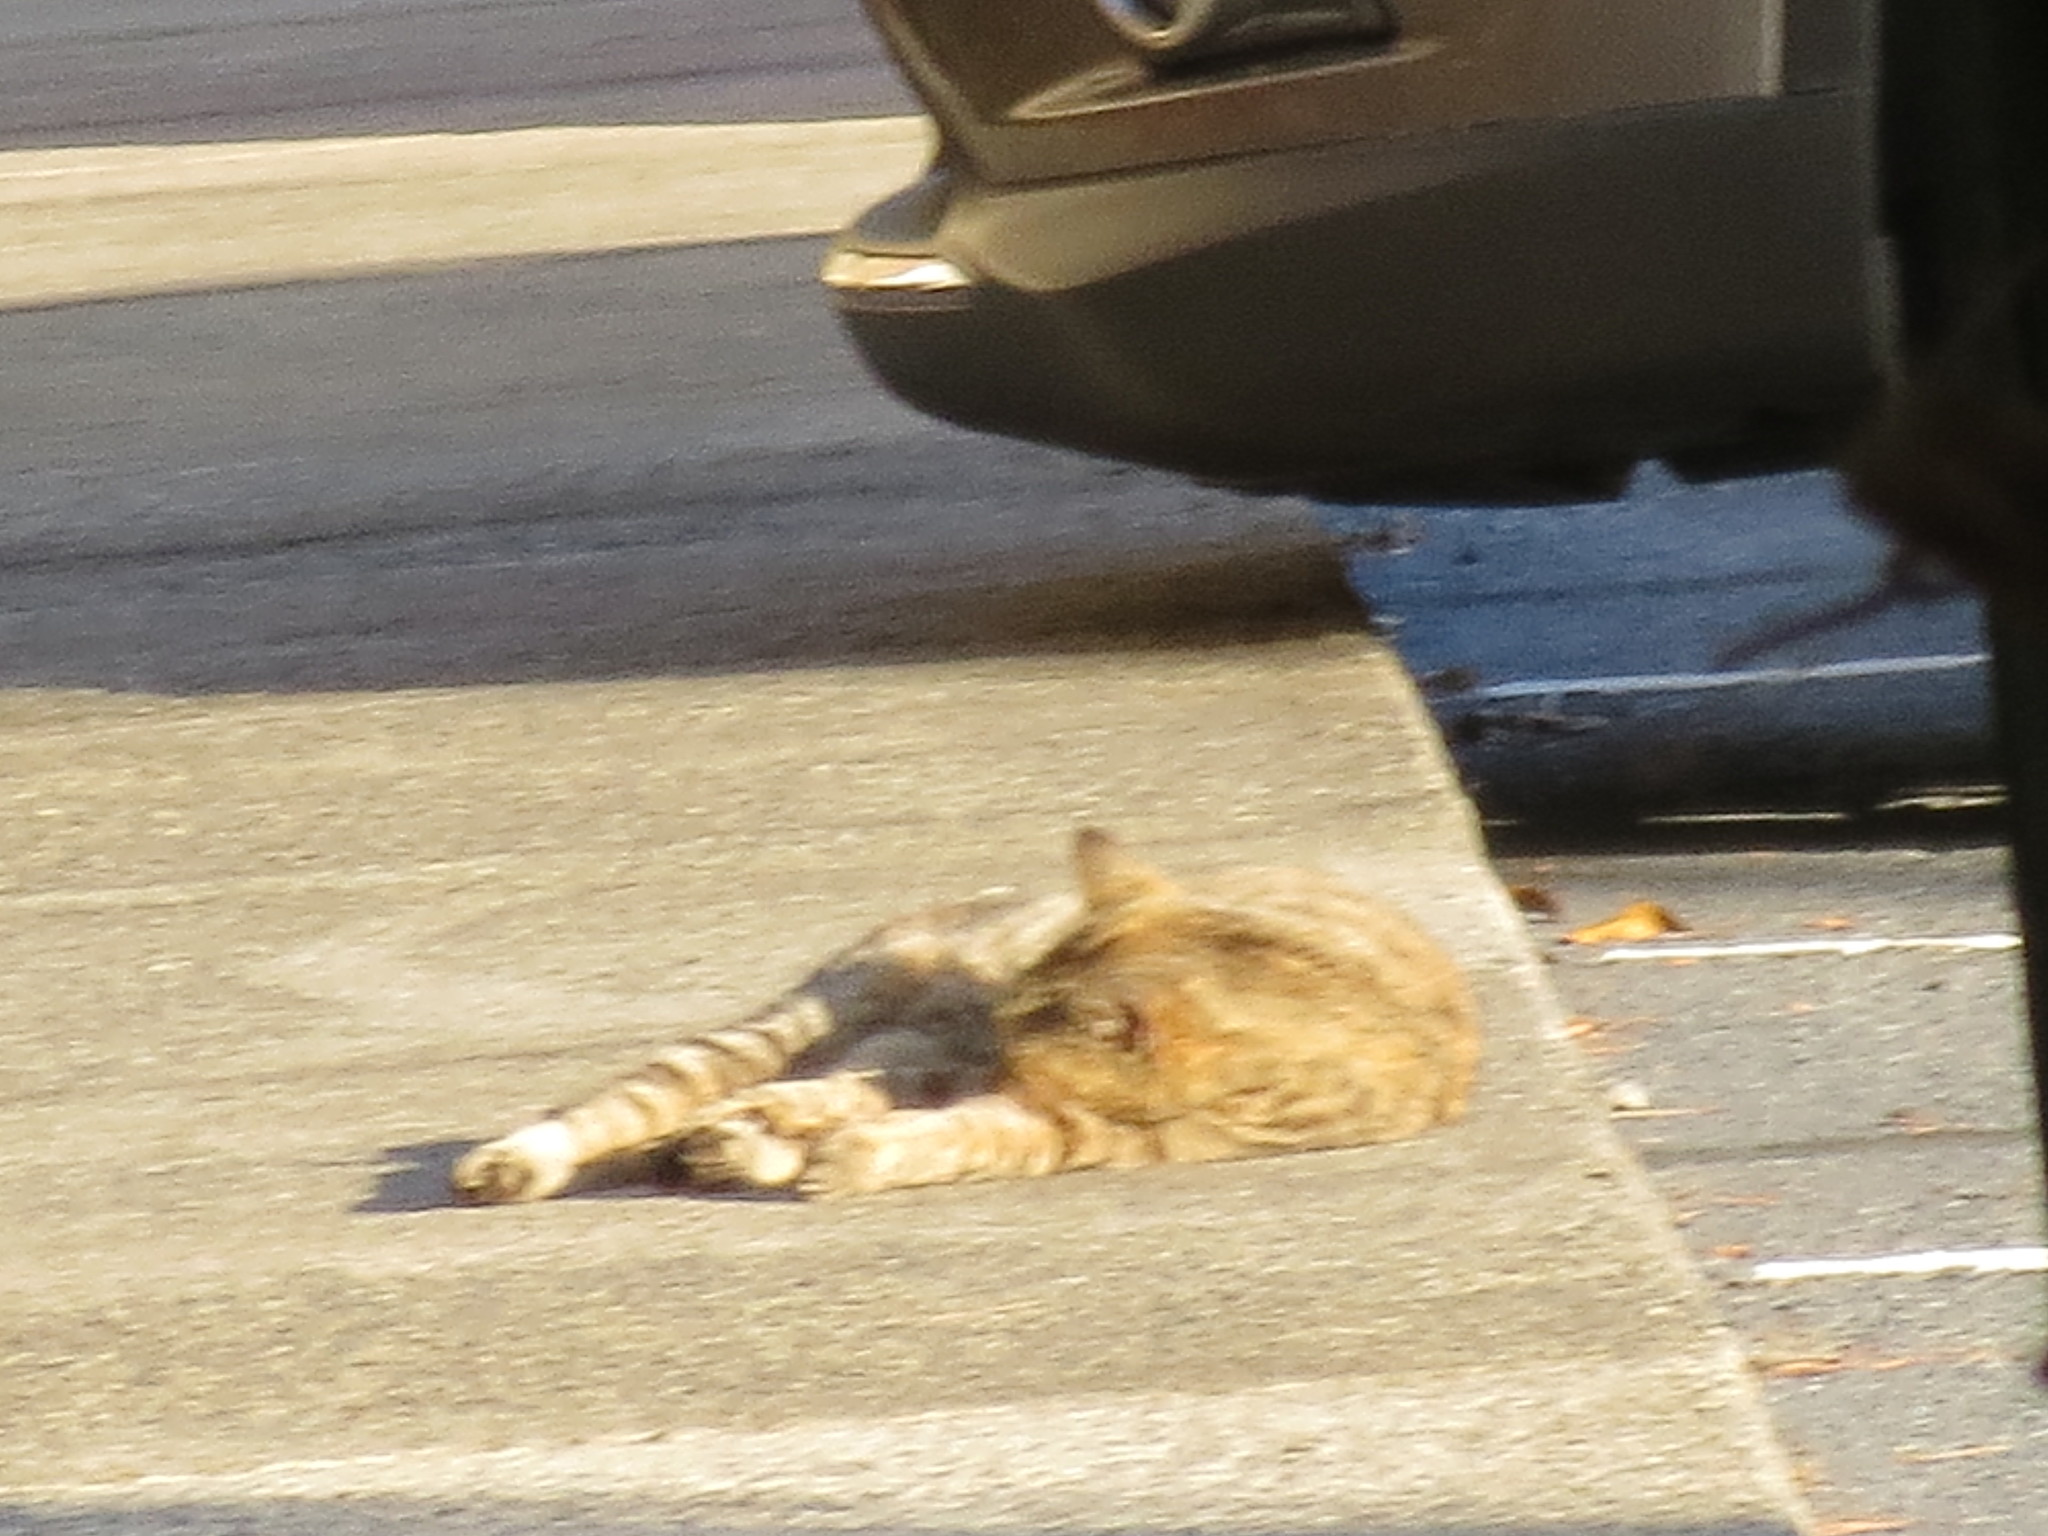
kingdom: Animalia
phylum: Chordata
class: Mammalia
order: Carnivora
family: Felidae
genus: Felis
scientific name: Felis catus
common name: Domestic cat
